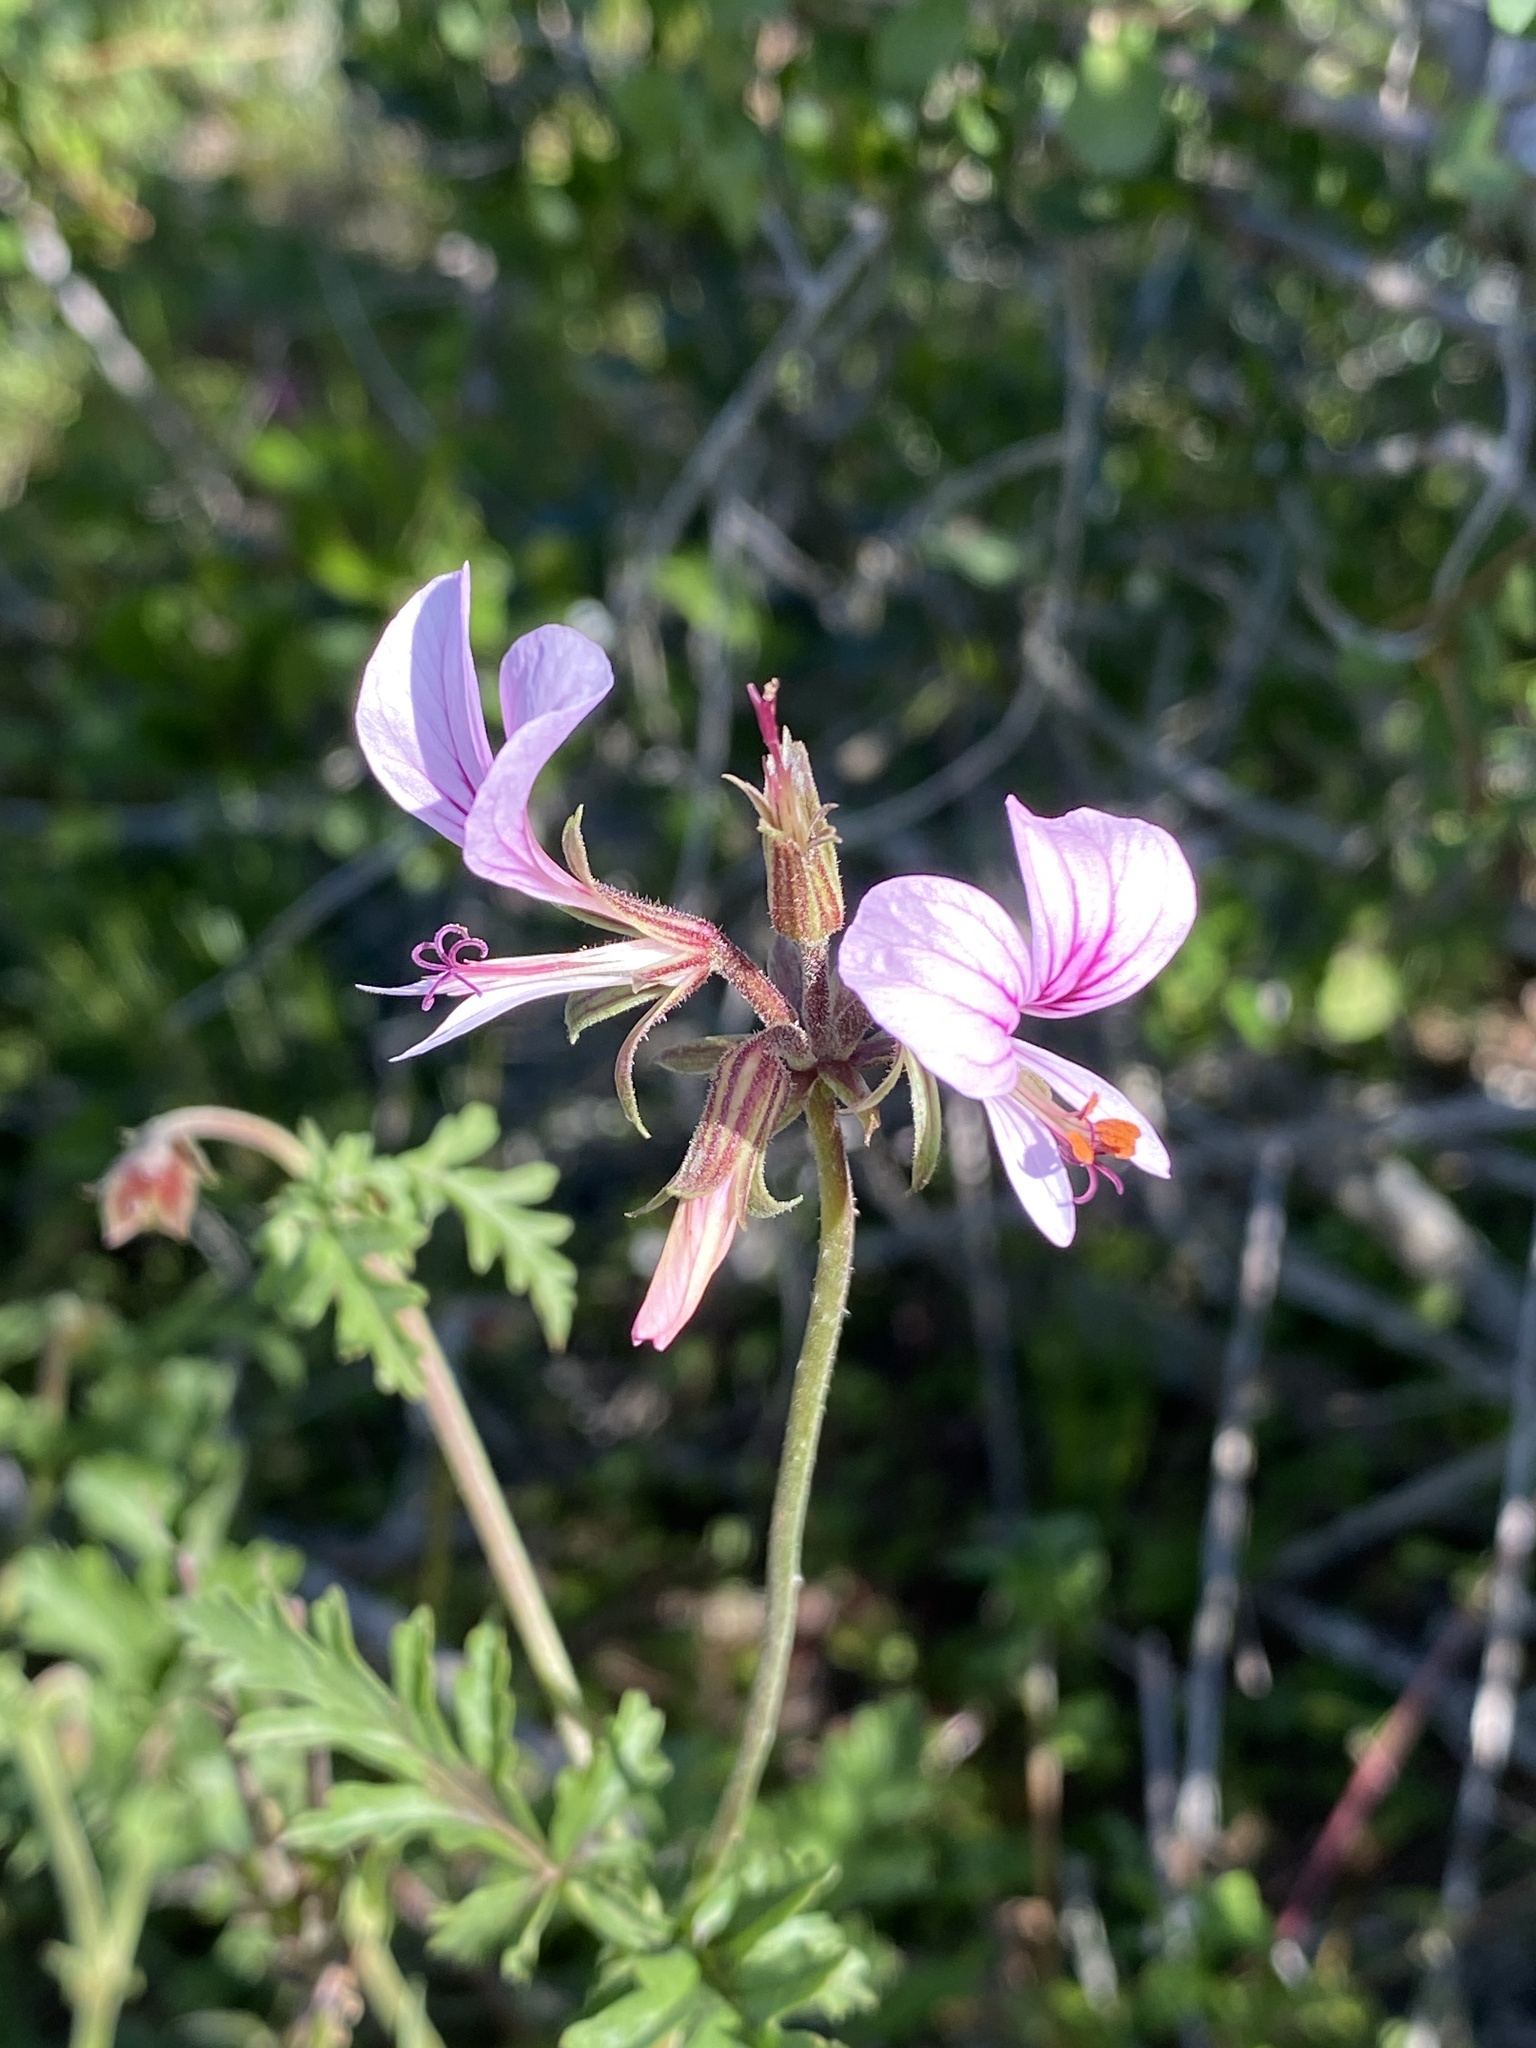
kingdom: Plantae
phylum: Tracheophyta
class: Magnoliopsida
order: Geraniales
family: Geraniaceae
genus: Pelargonium
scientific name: Pelargonium myrrhifolium
